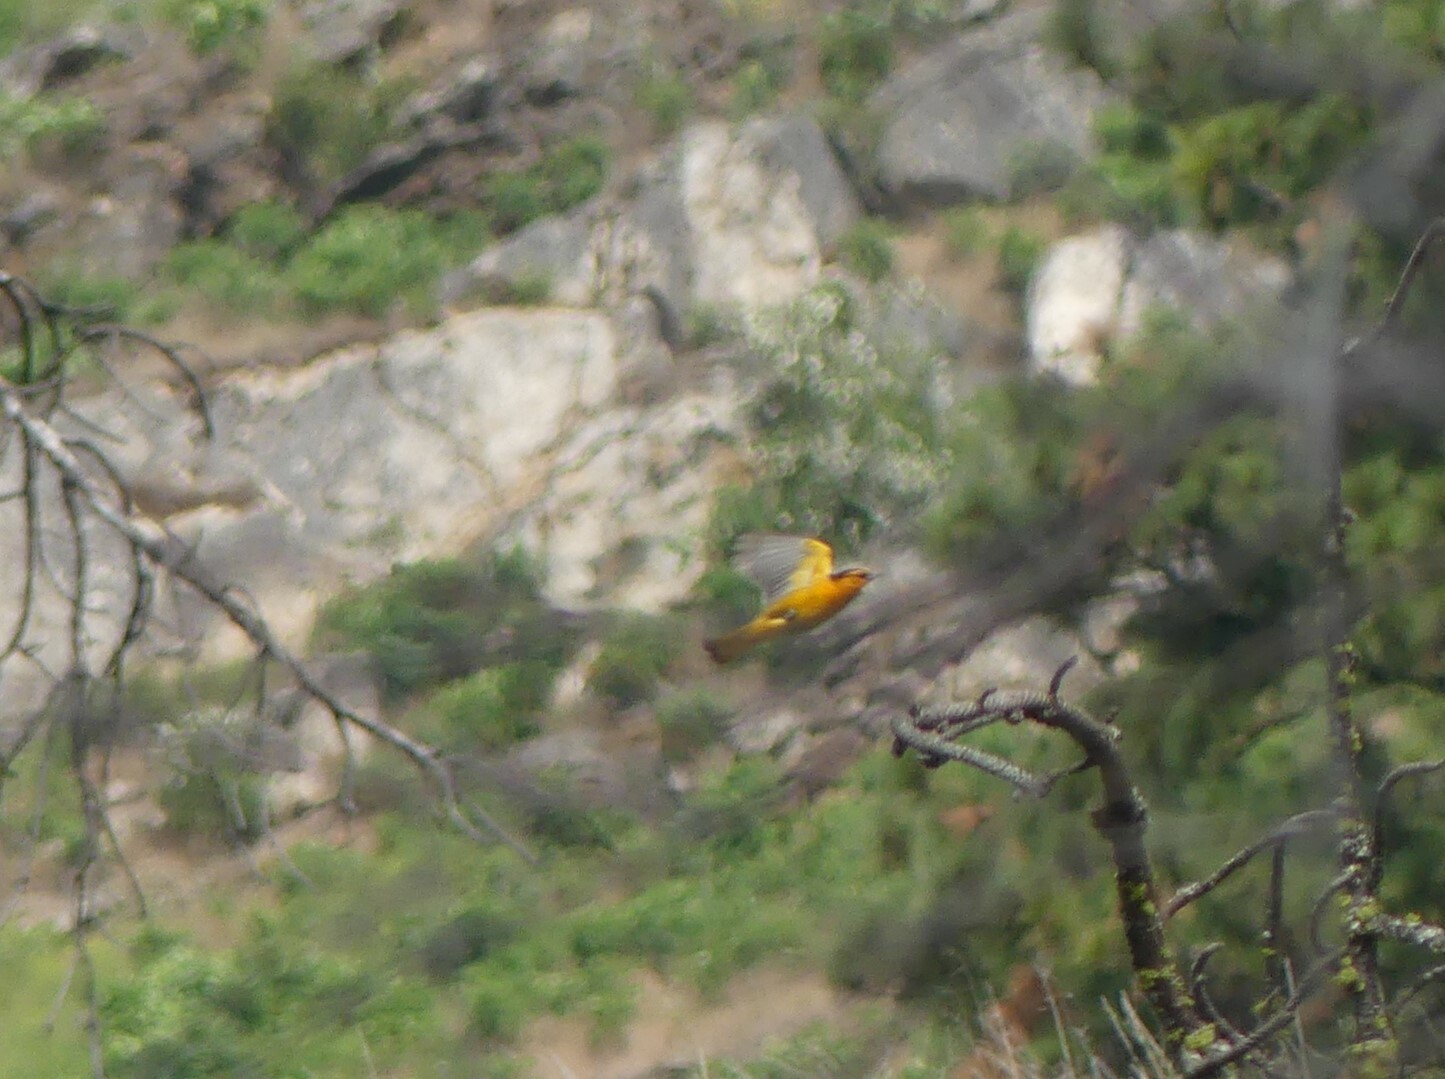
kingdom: Animalia
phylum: Chordata
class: Aves
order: Passeriformes
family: Icteridae
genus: Icterus
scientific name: Icterus bullockii
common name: Bullock's oriole
